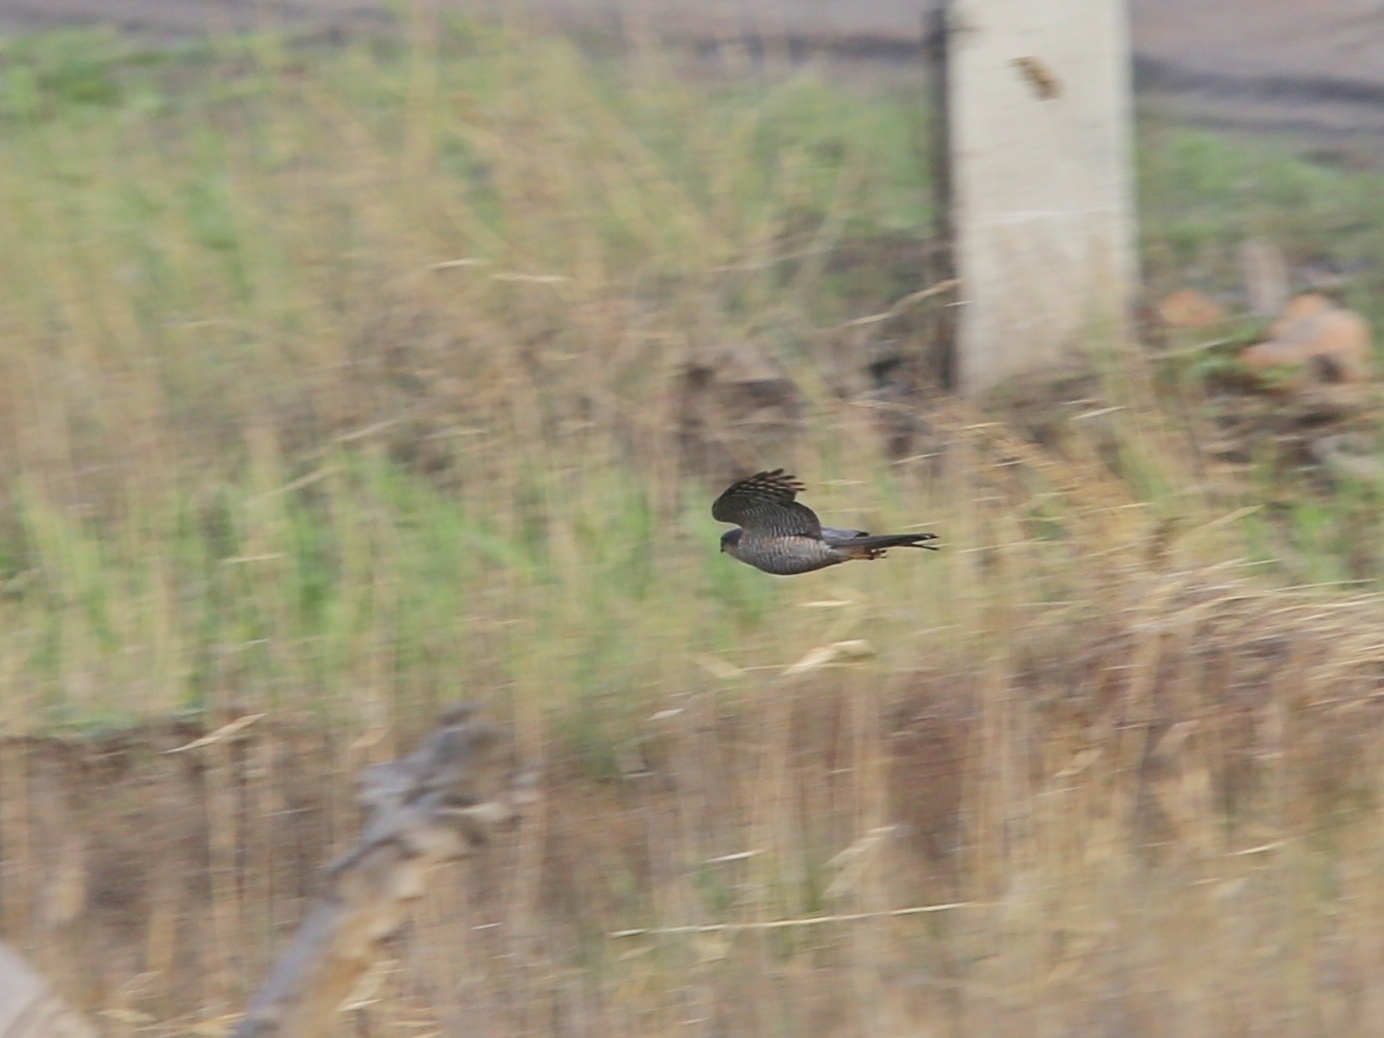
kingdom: Animalia
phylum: Chordata
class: Aves
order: Accipitriformes
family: Accipitridae
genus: Accipiter
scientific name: Accipiter nisus
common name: Eurasian sparrowhawk
